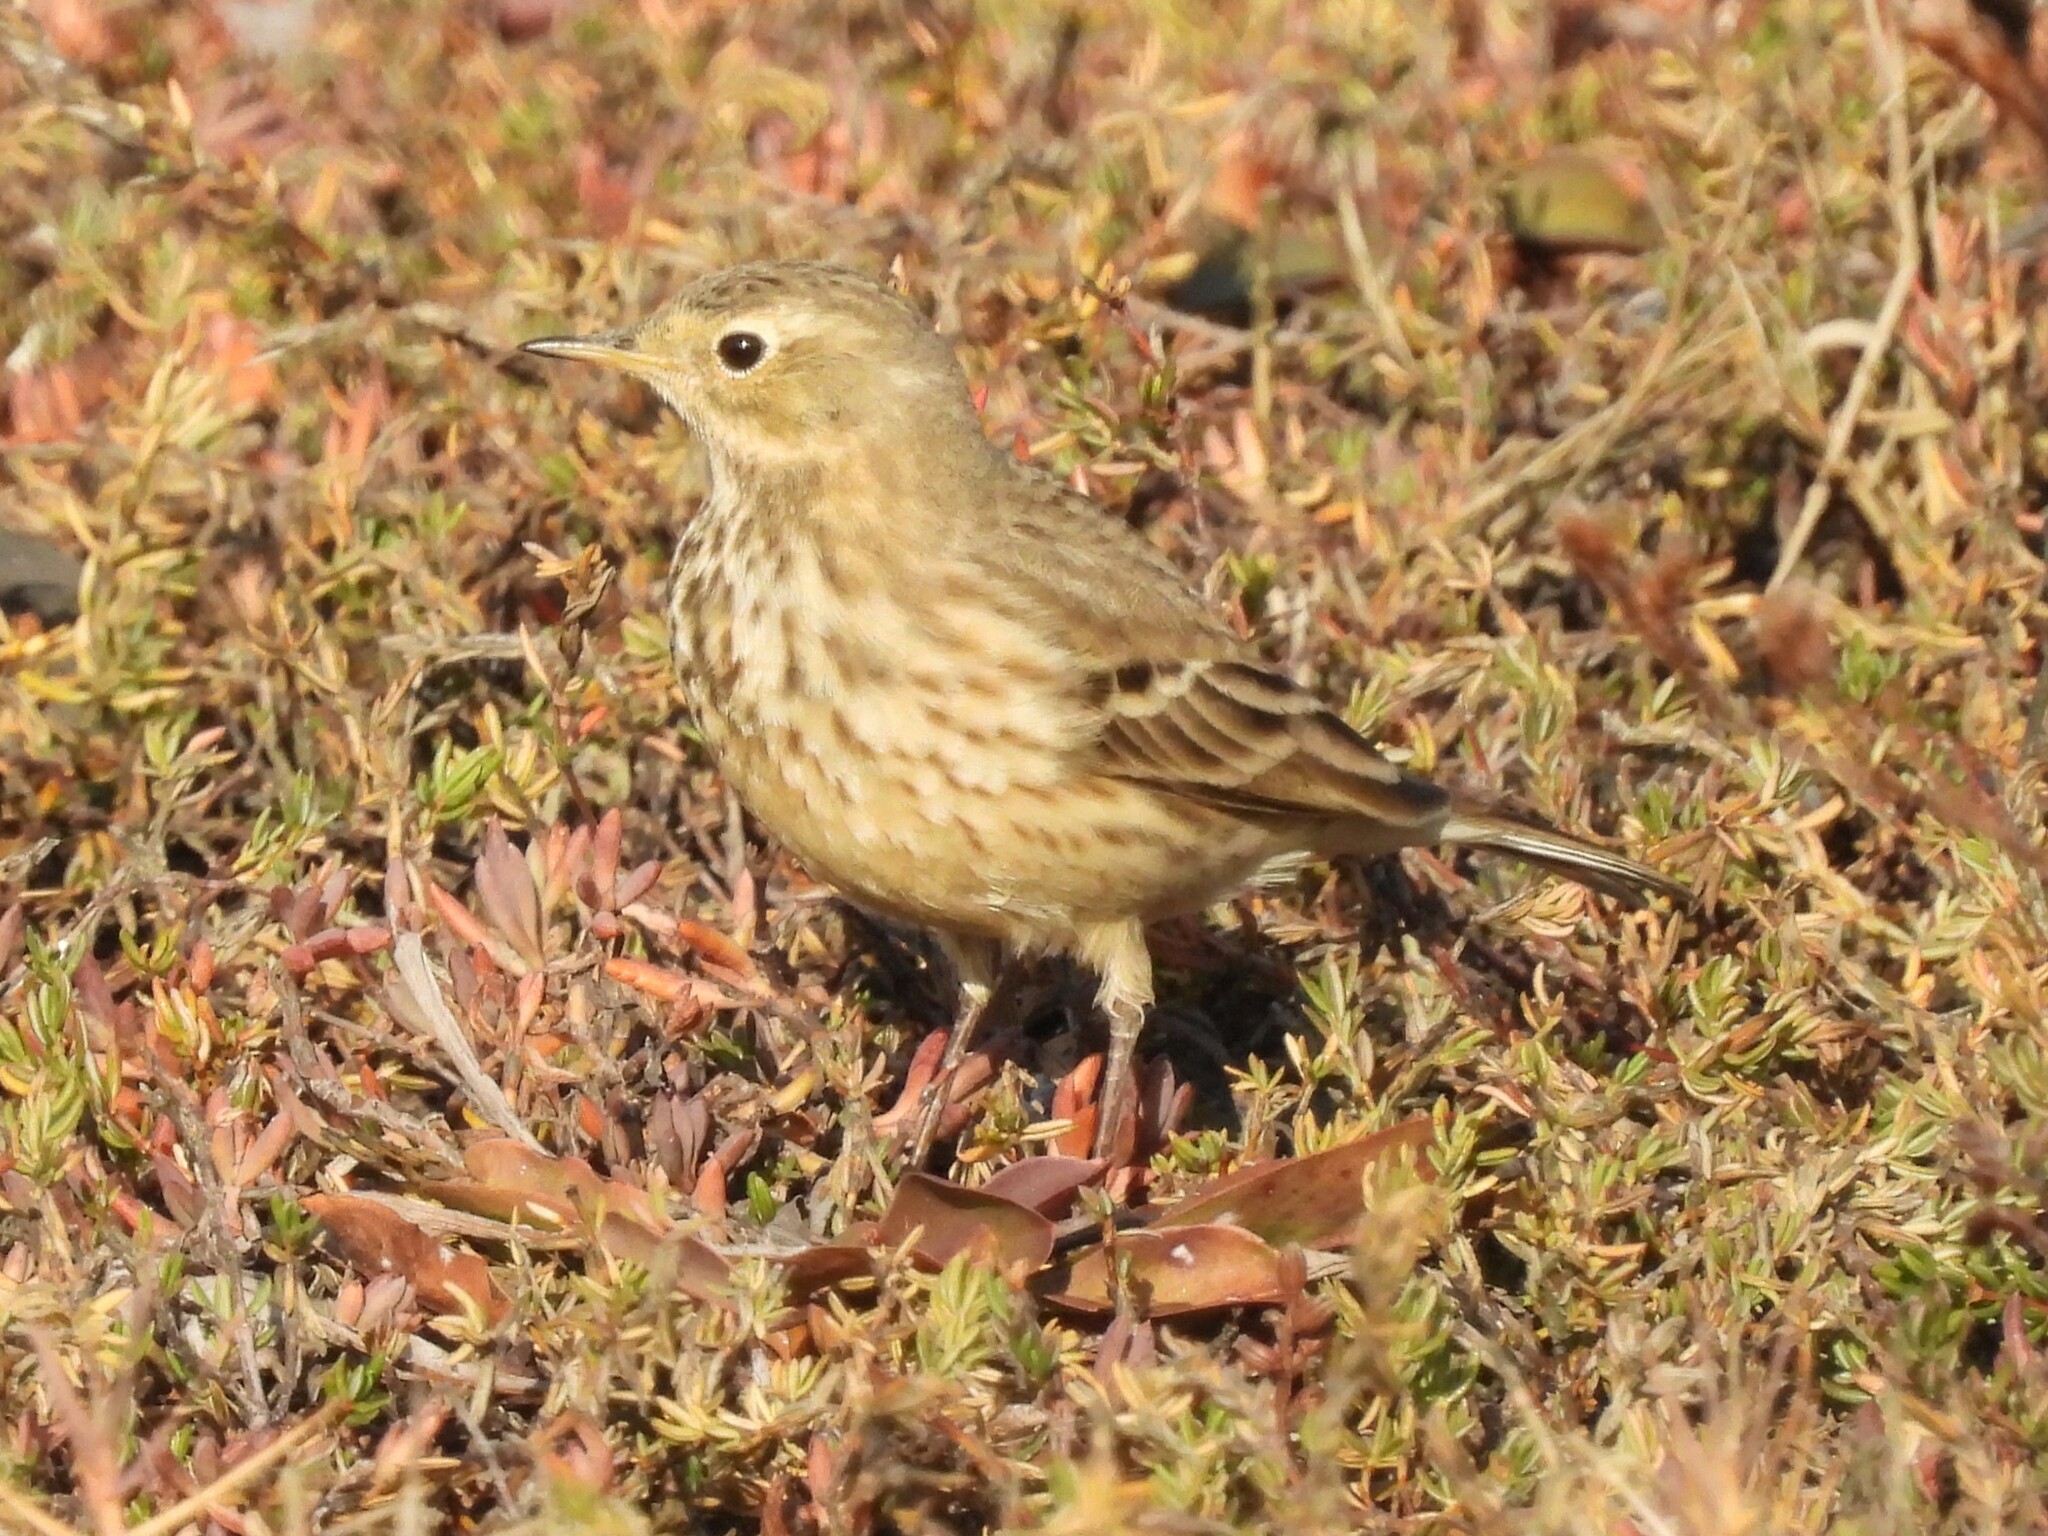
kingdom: Animalia
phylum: Chordata
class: Aves
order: Passeriformes
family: Motacillidae
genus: Anthus
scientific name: Anthus rubescens
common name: Buff-bellied pipit
